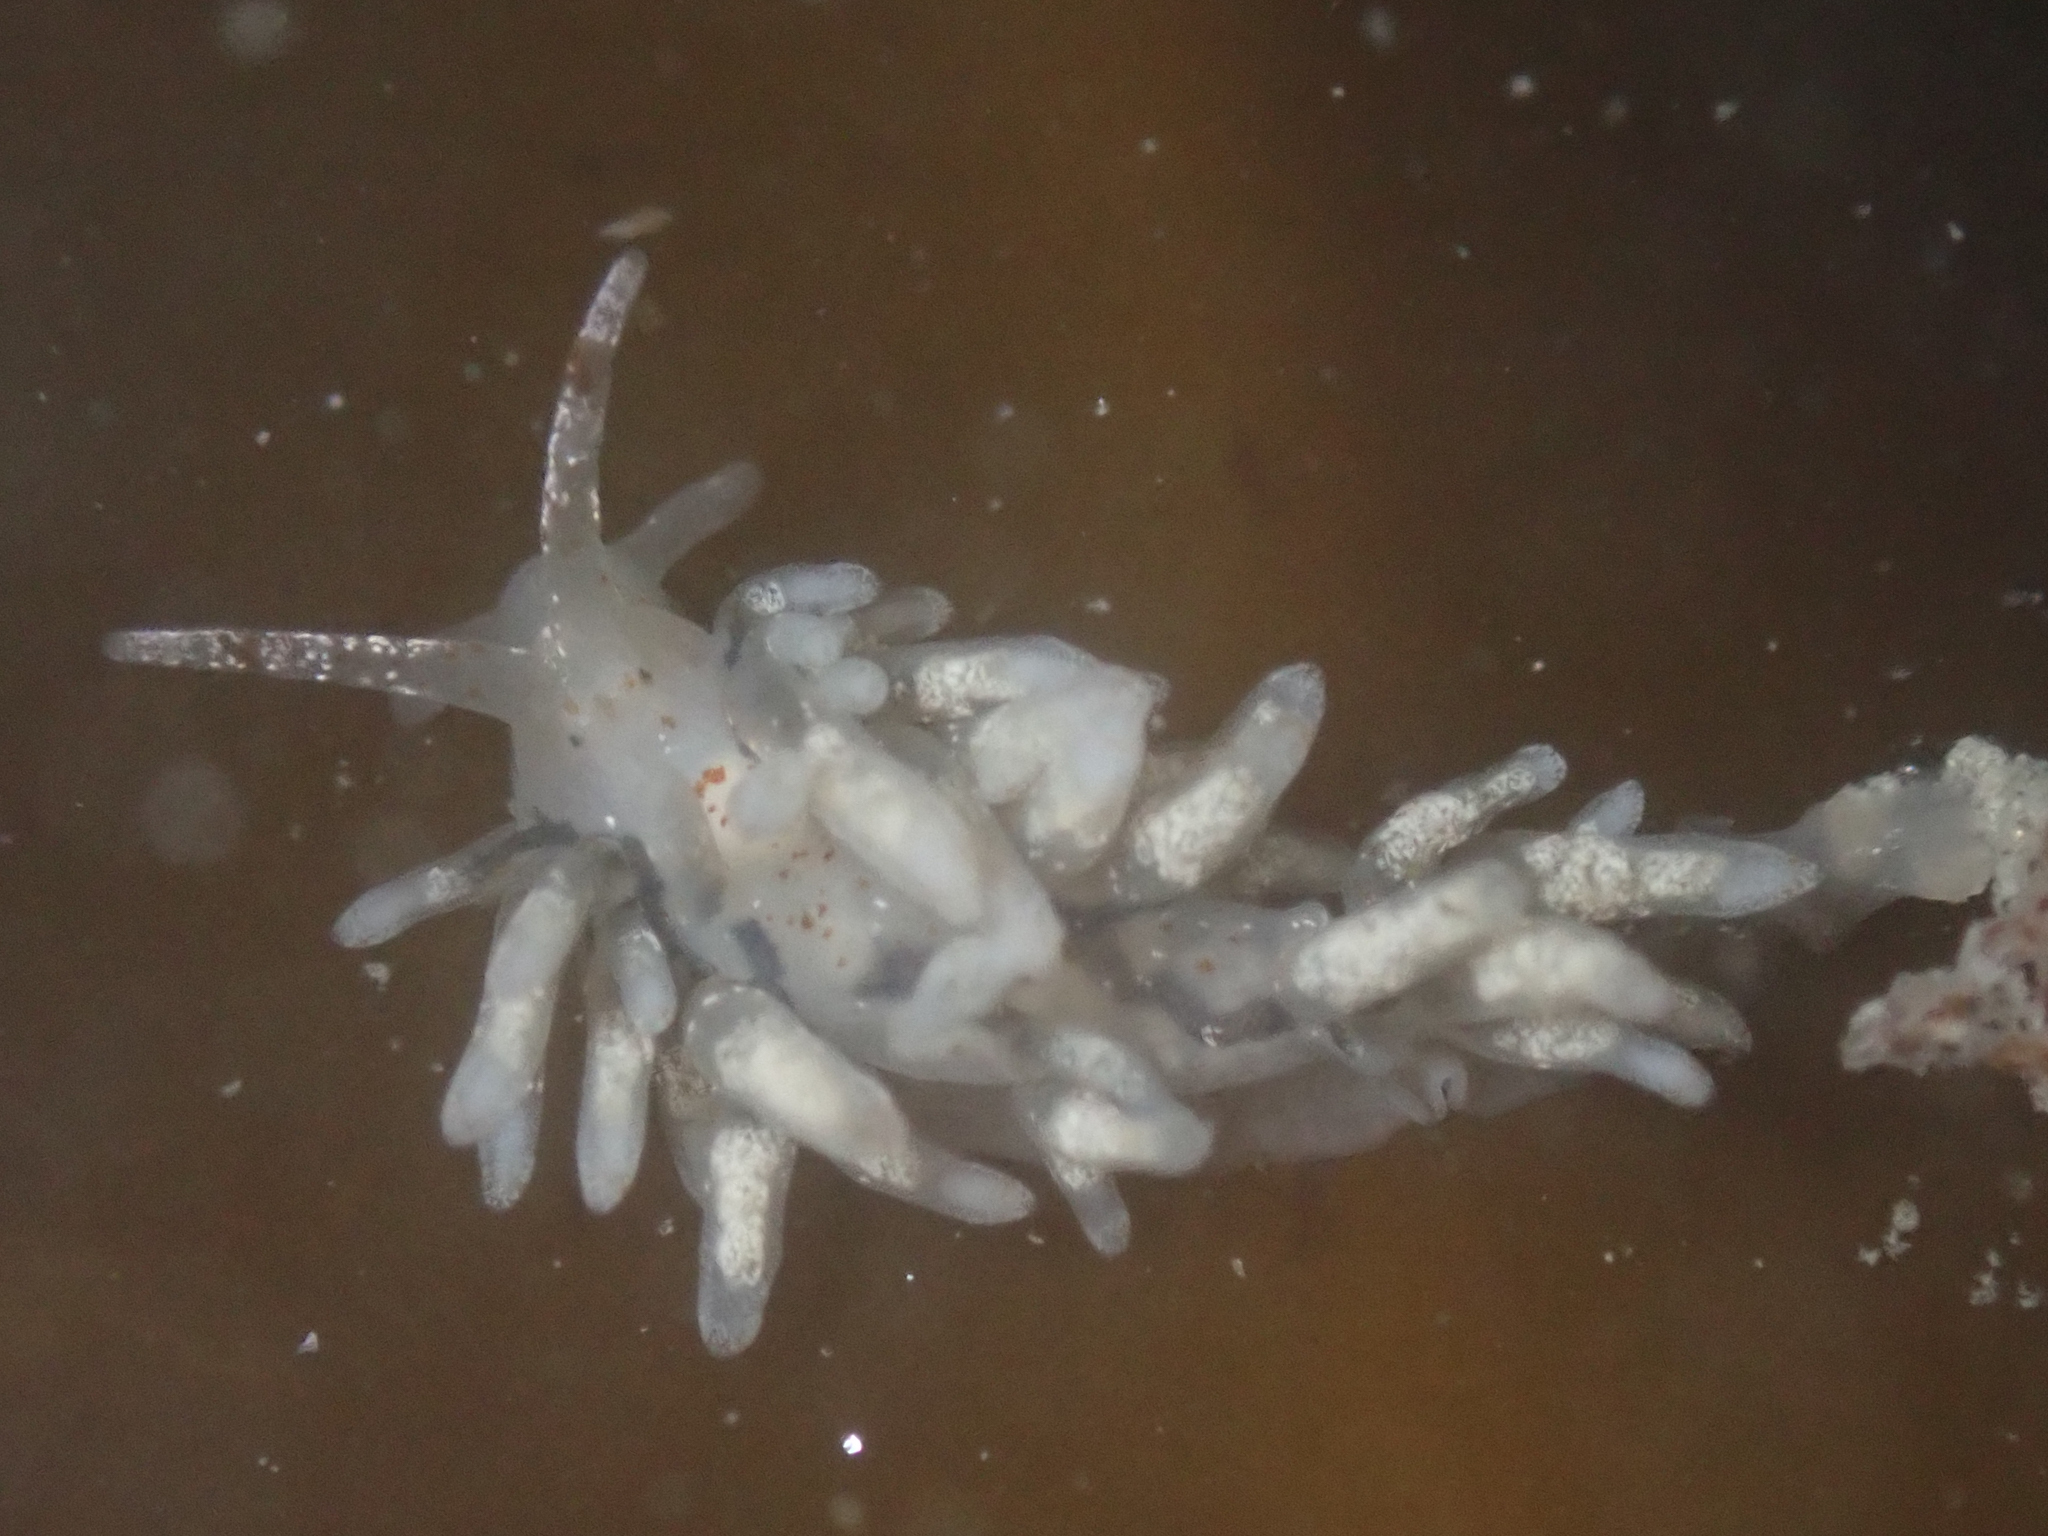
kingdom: Animalia
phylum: Mollusca
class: Gastropoda
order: Nudibranchia
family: Eubranchidae
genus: Eubranchus
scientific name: Eubranchus olivaceus
